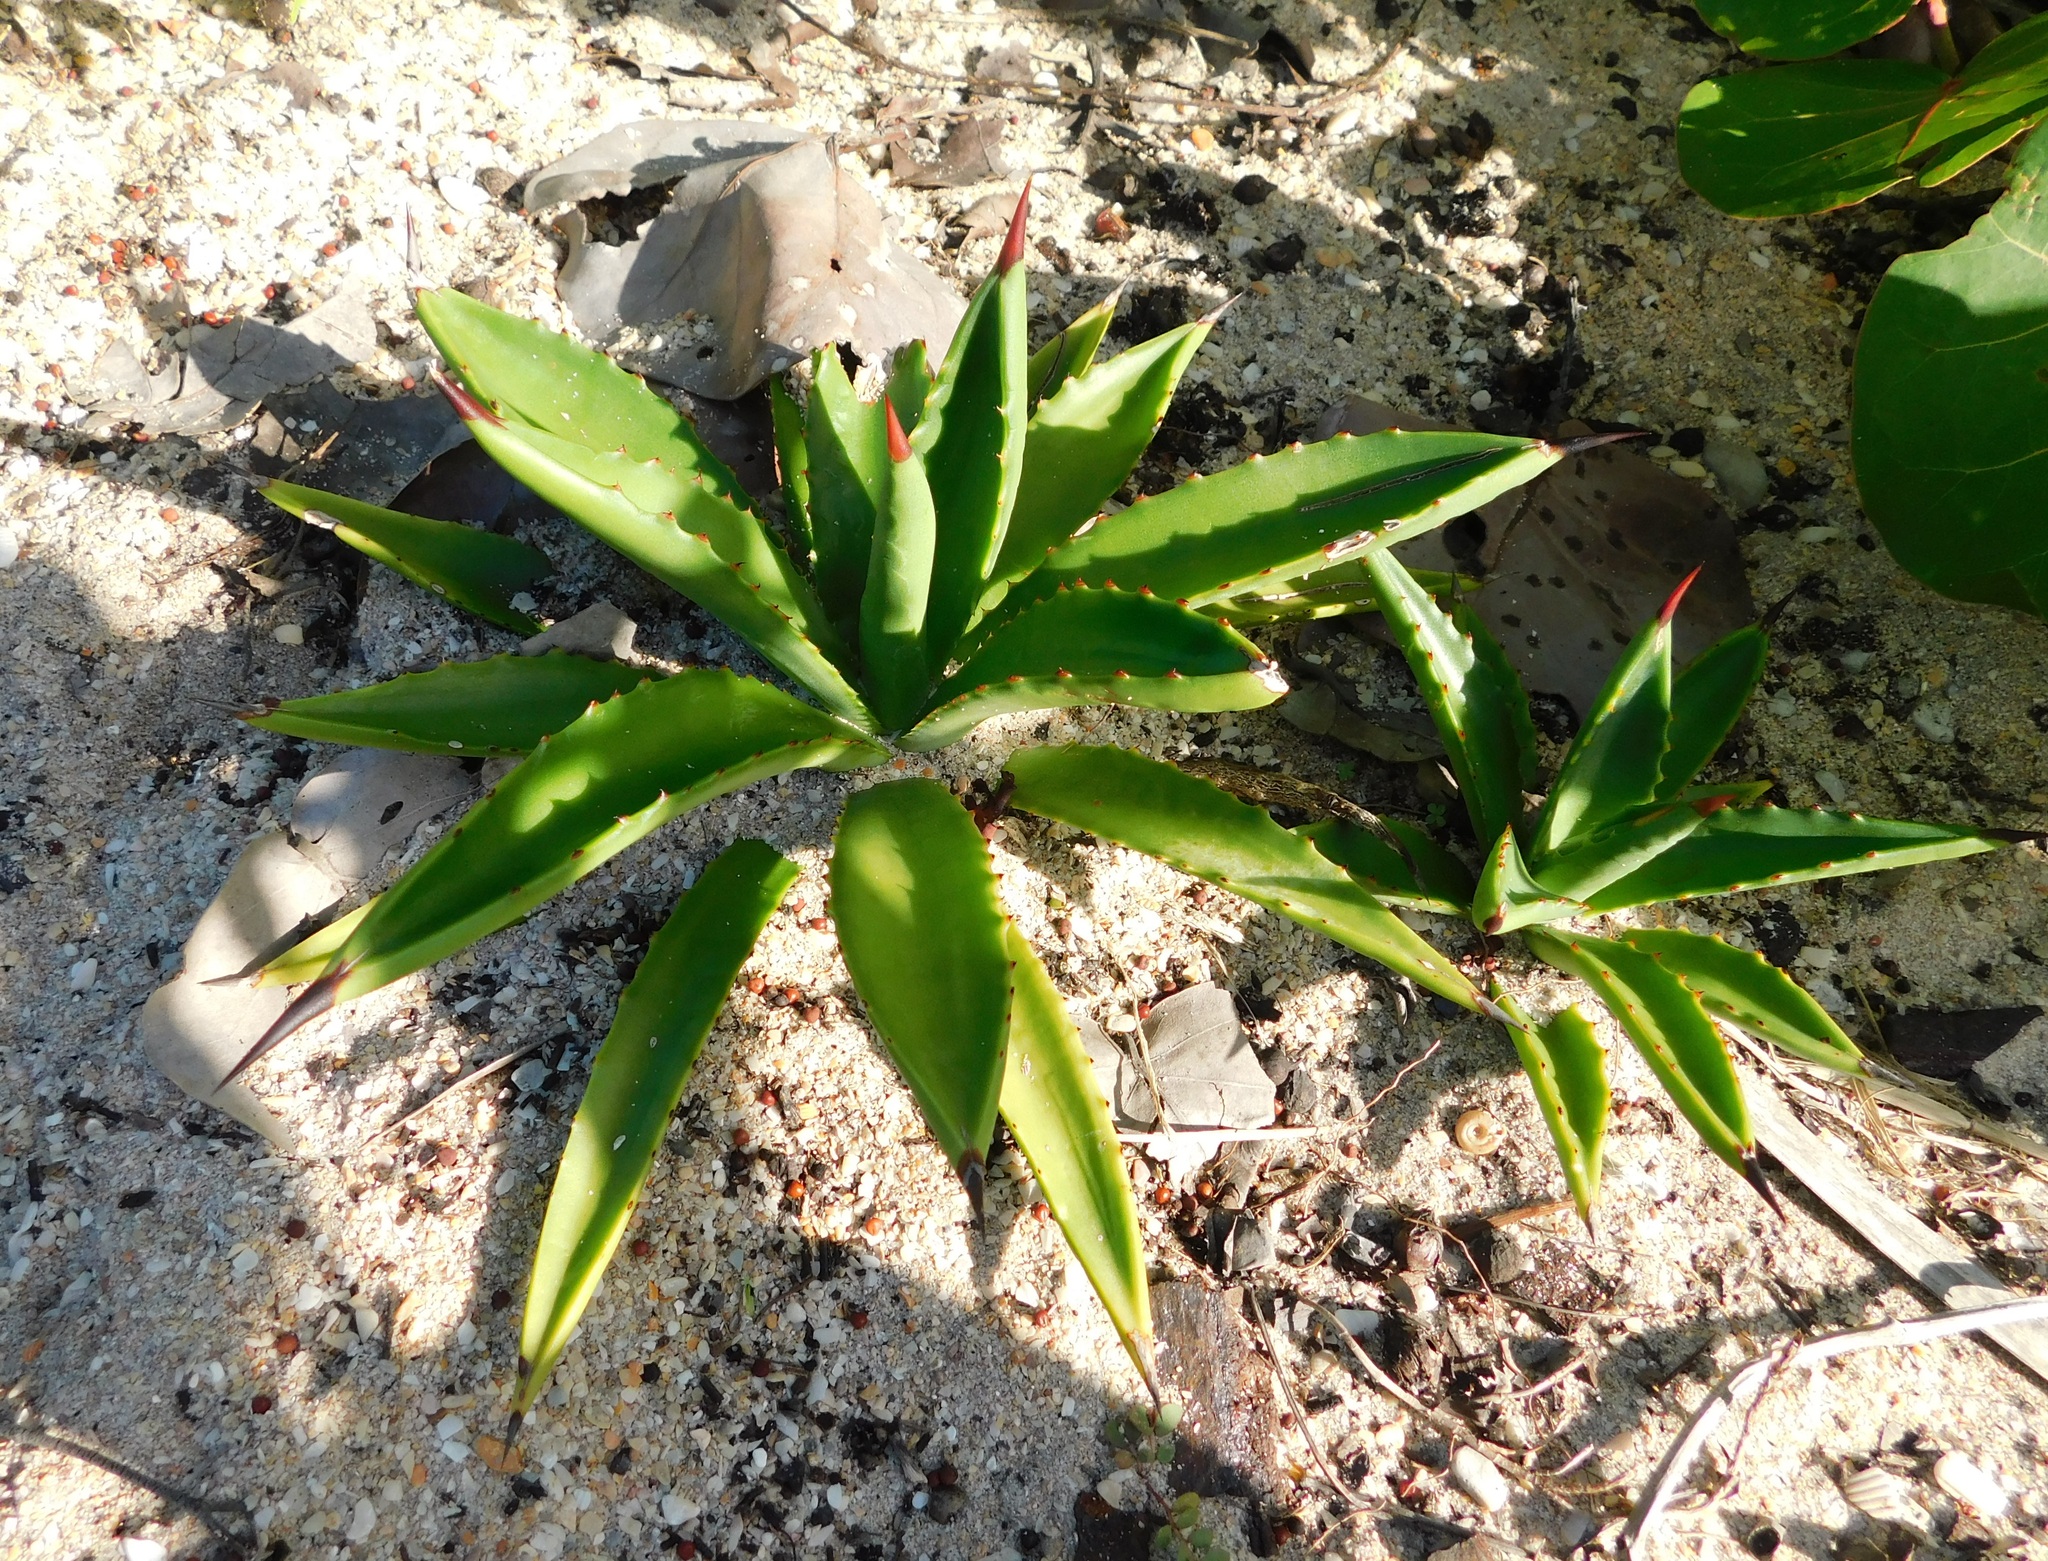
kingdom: Plantae
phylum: Tracheophyta
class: Liliopsida
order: Asparagales
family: Asparagaceae
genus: Agave
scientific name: Agave decipiens
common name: False sisal
